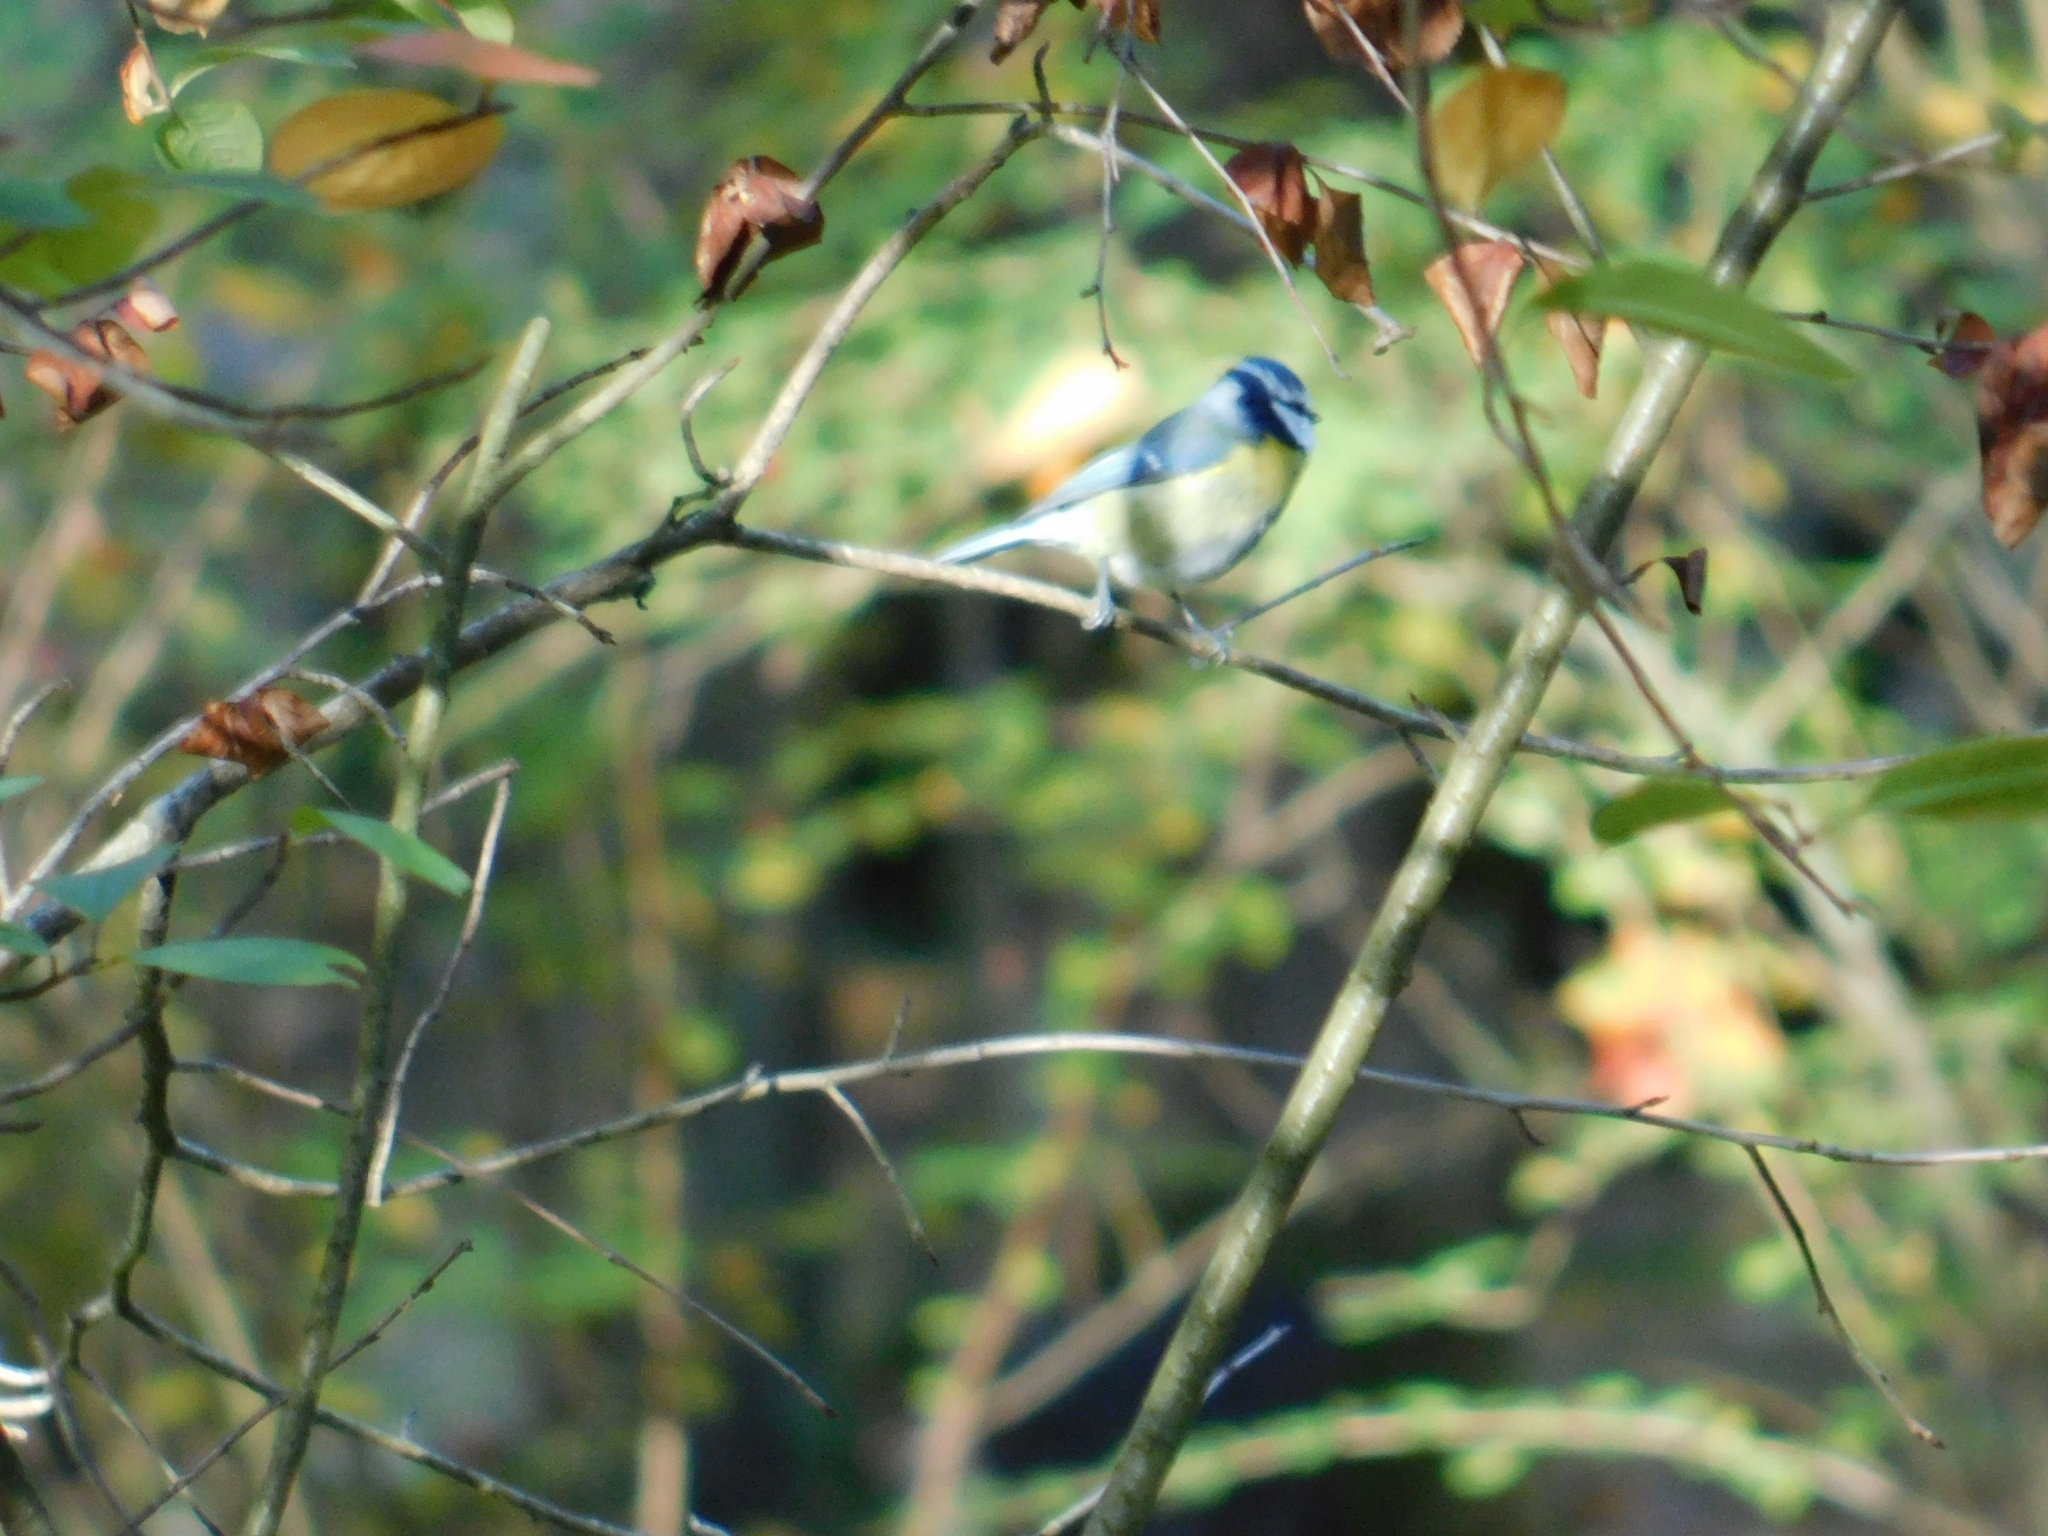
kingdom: Animalia
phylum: Chordata
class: Aves
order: Passeriformes
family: Paridae
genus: Cyanistes
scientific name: Cyanistes caeruleus
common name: Eurasian blue tit
